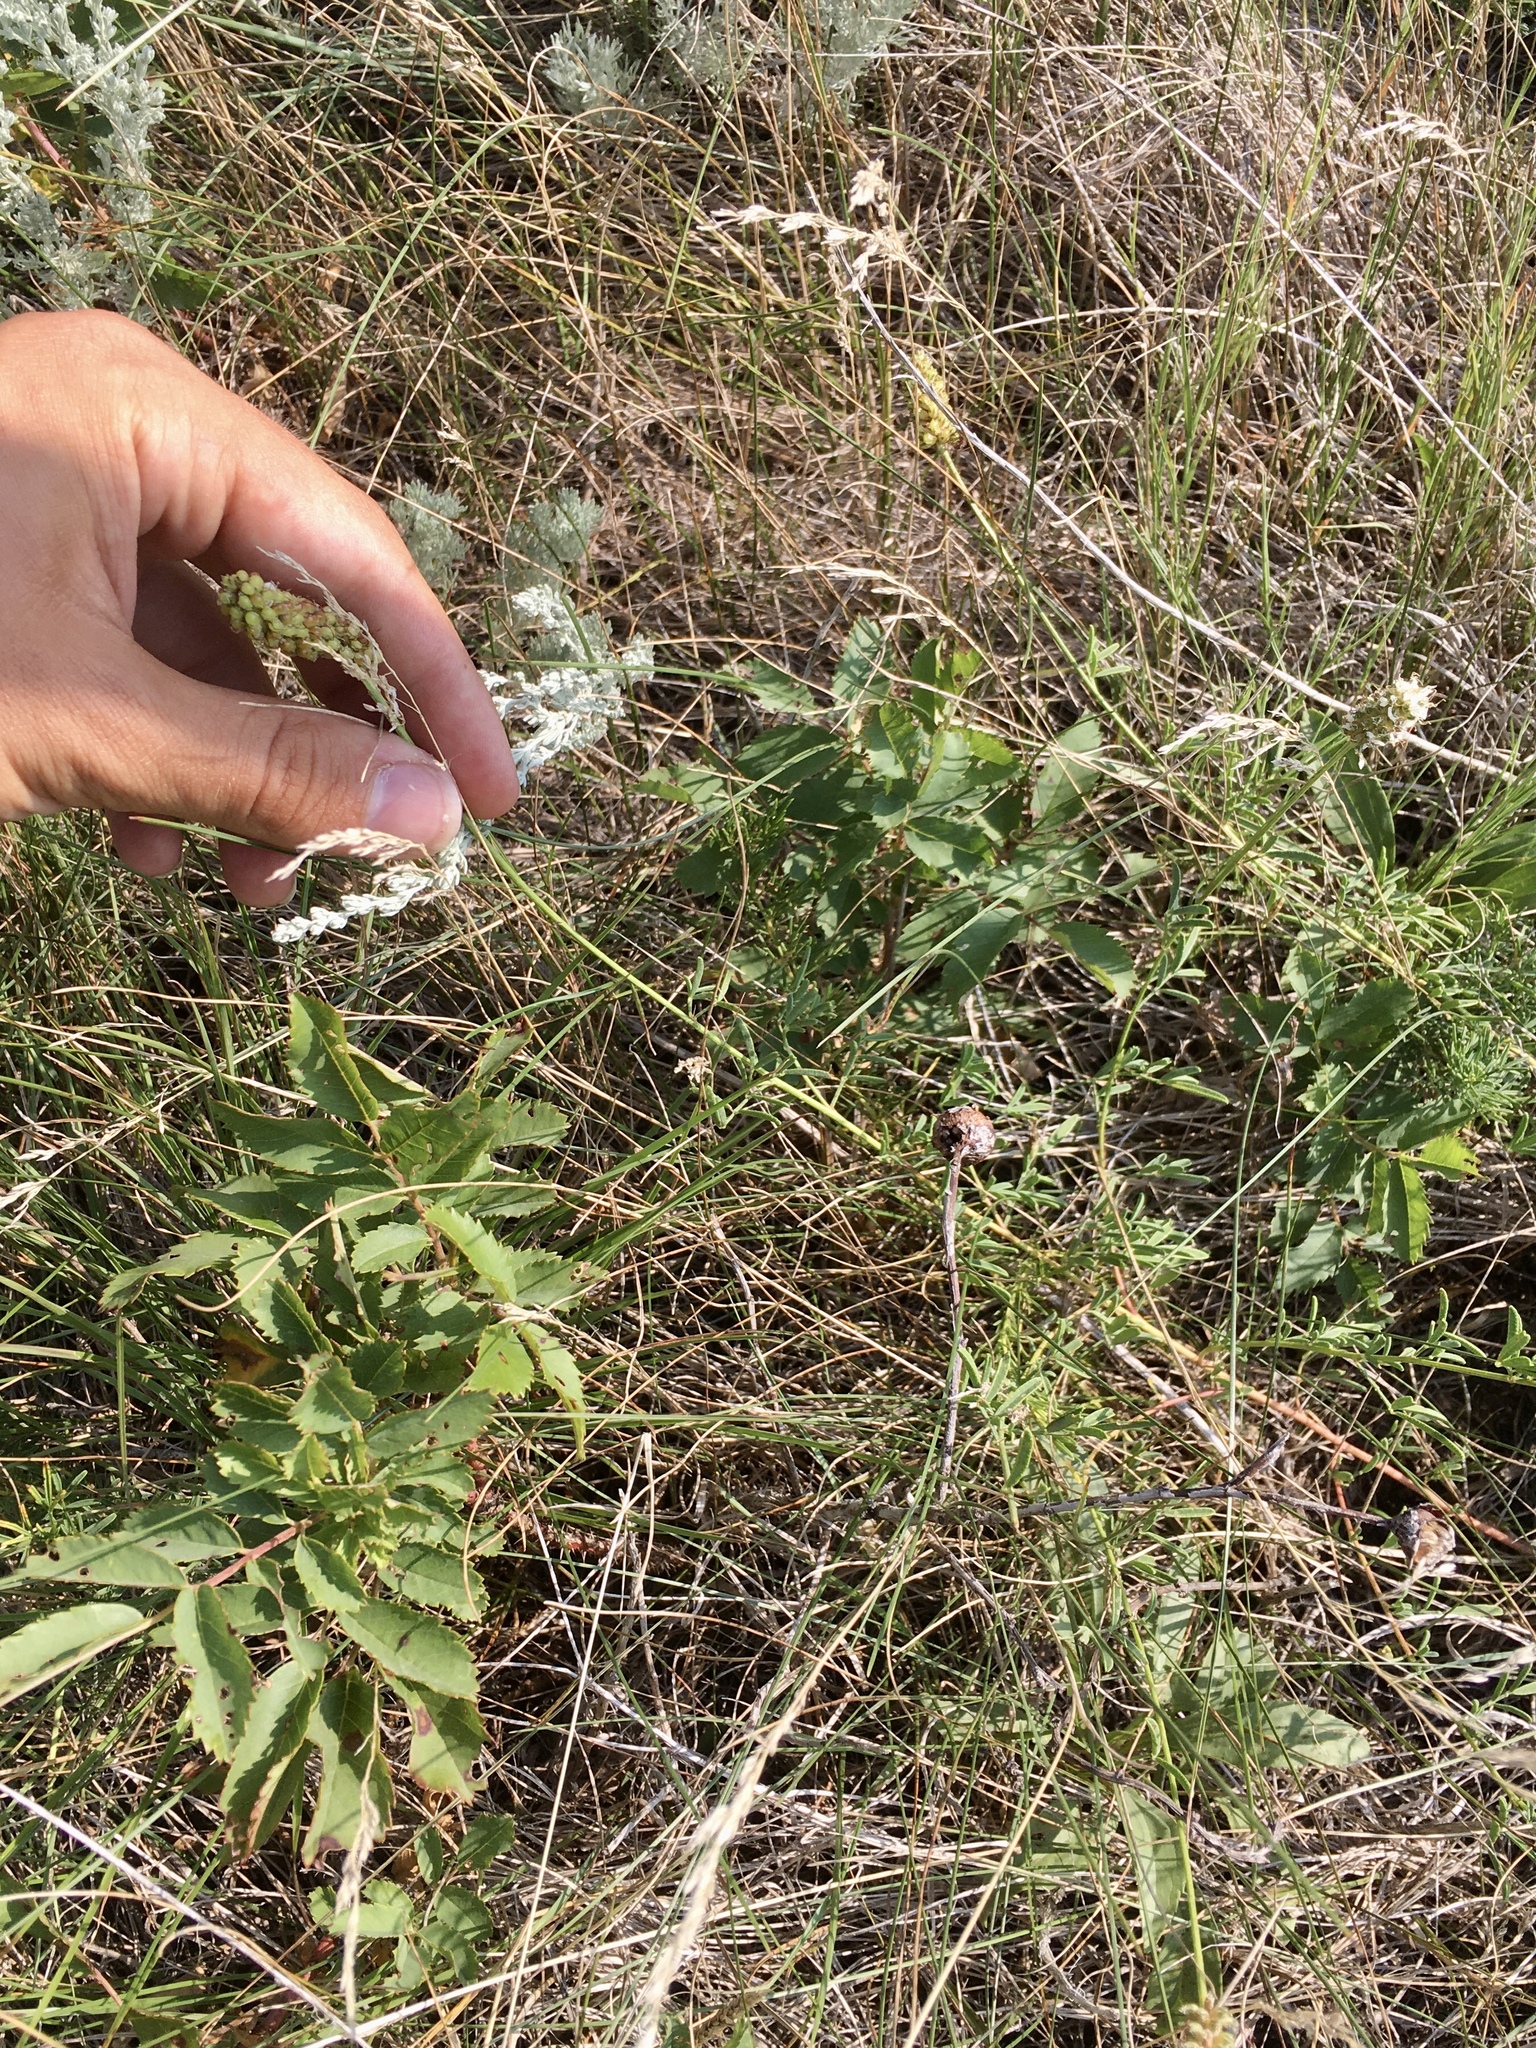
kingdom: Plantae
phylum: Tracheophyta
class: Magnoliopsida
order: Fabales
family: Fabaceae
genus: Dalea
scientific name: Dalea candida
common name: White prairie-clover
